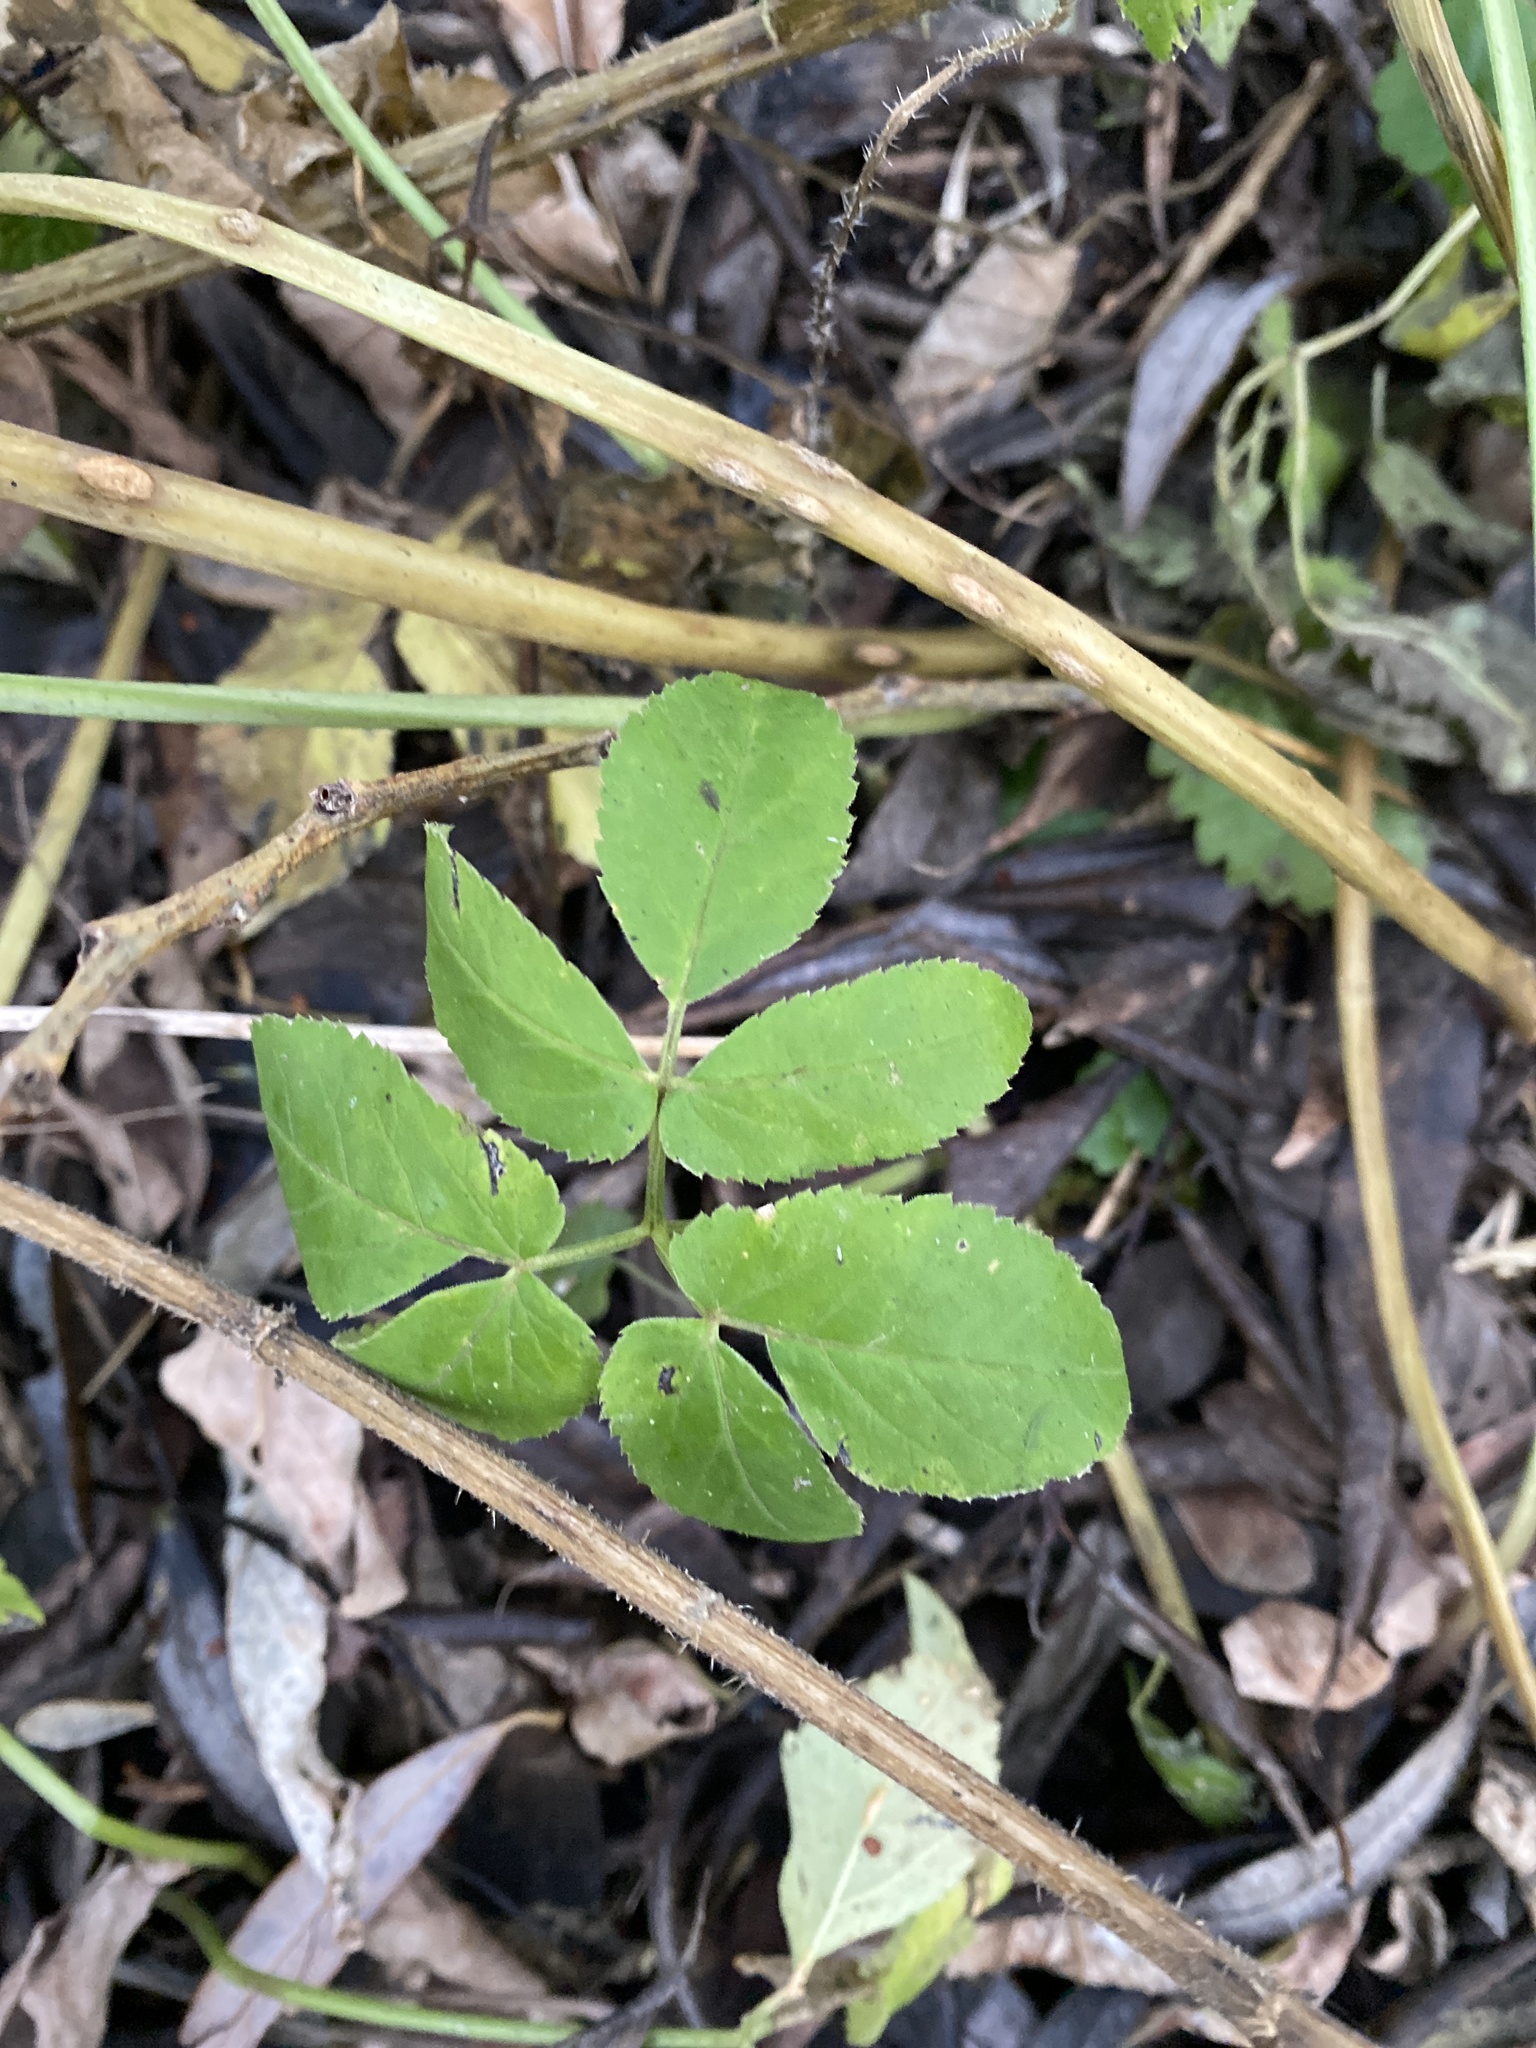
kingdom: Plantae
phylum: Tracheophyta
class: Magnoliopsida
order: Apiales
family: Apiaceae
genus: Aegopodium
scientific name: Aegopodium podagraria
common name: Ground-elder
